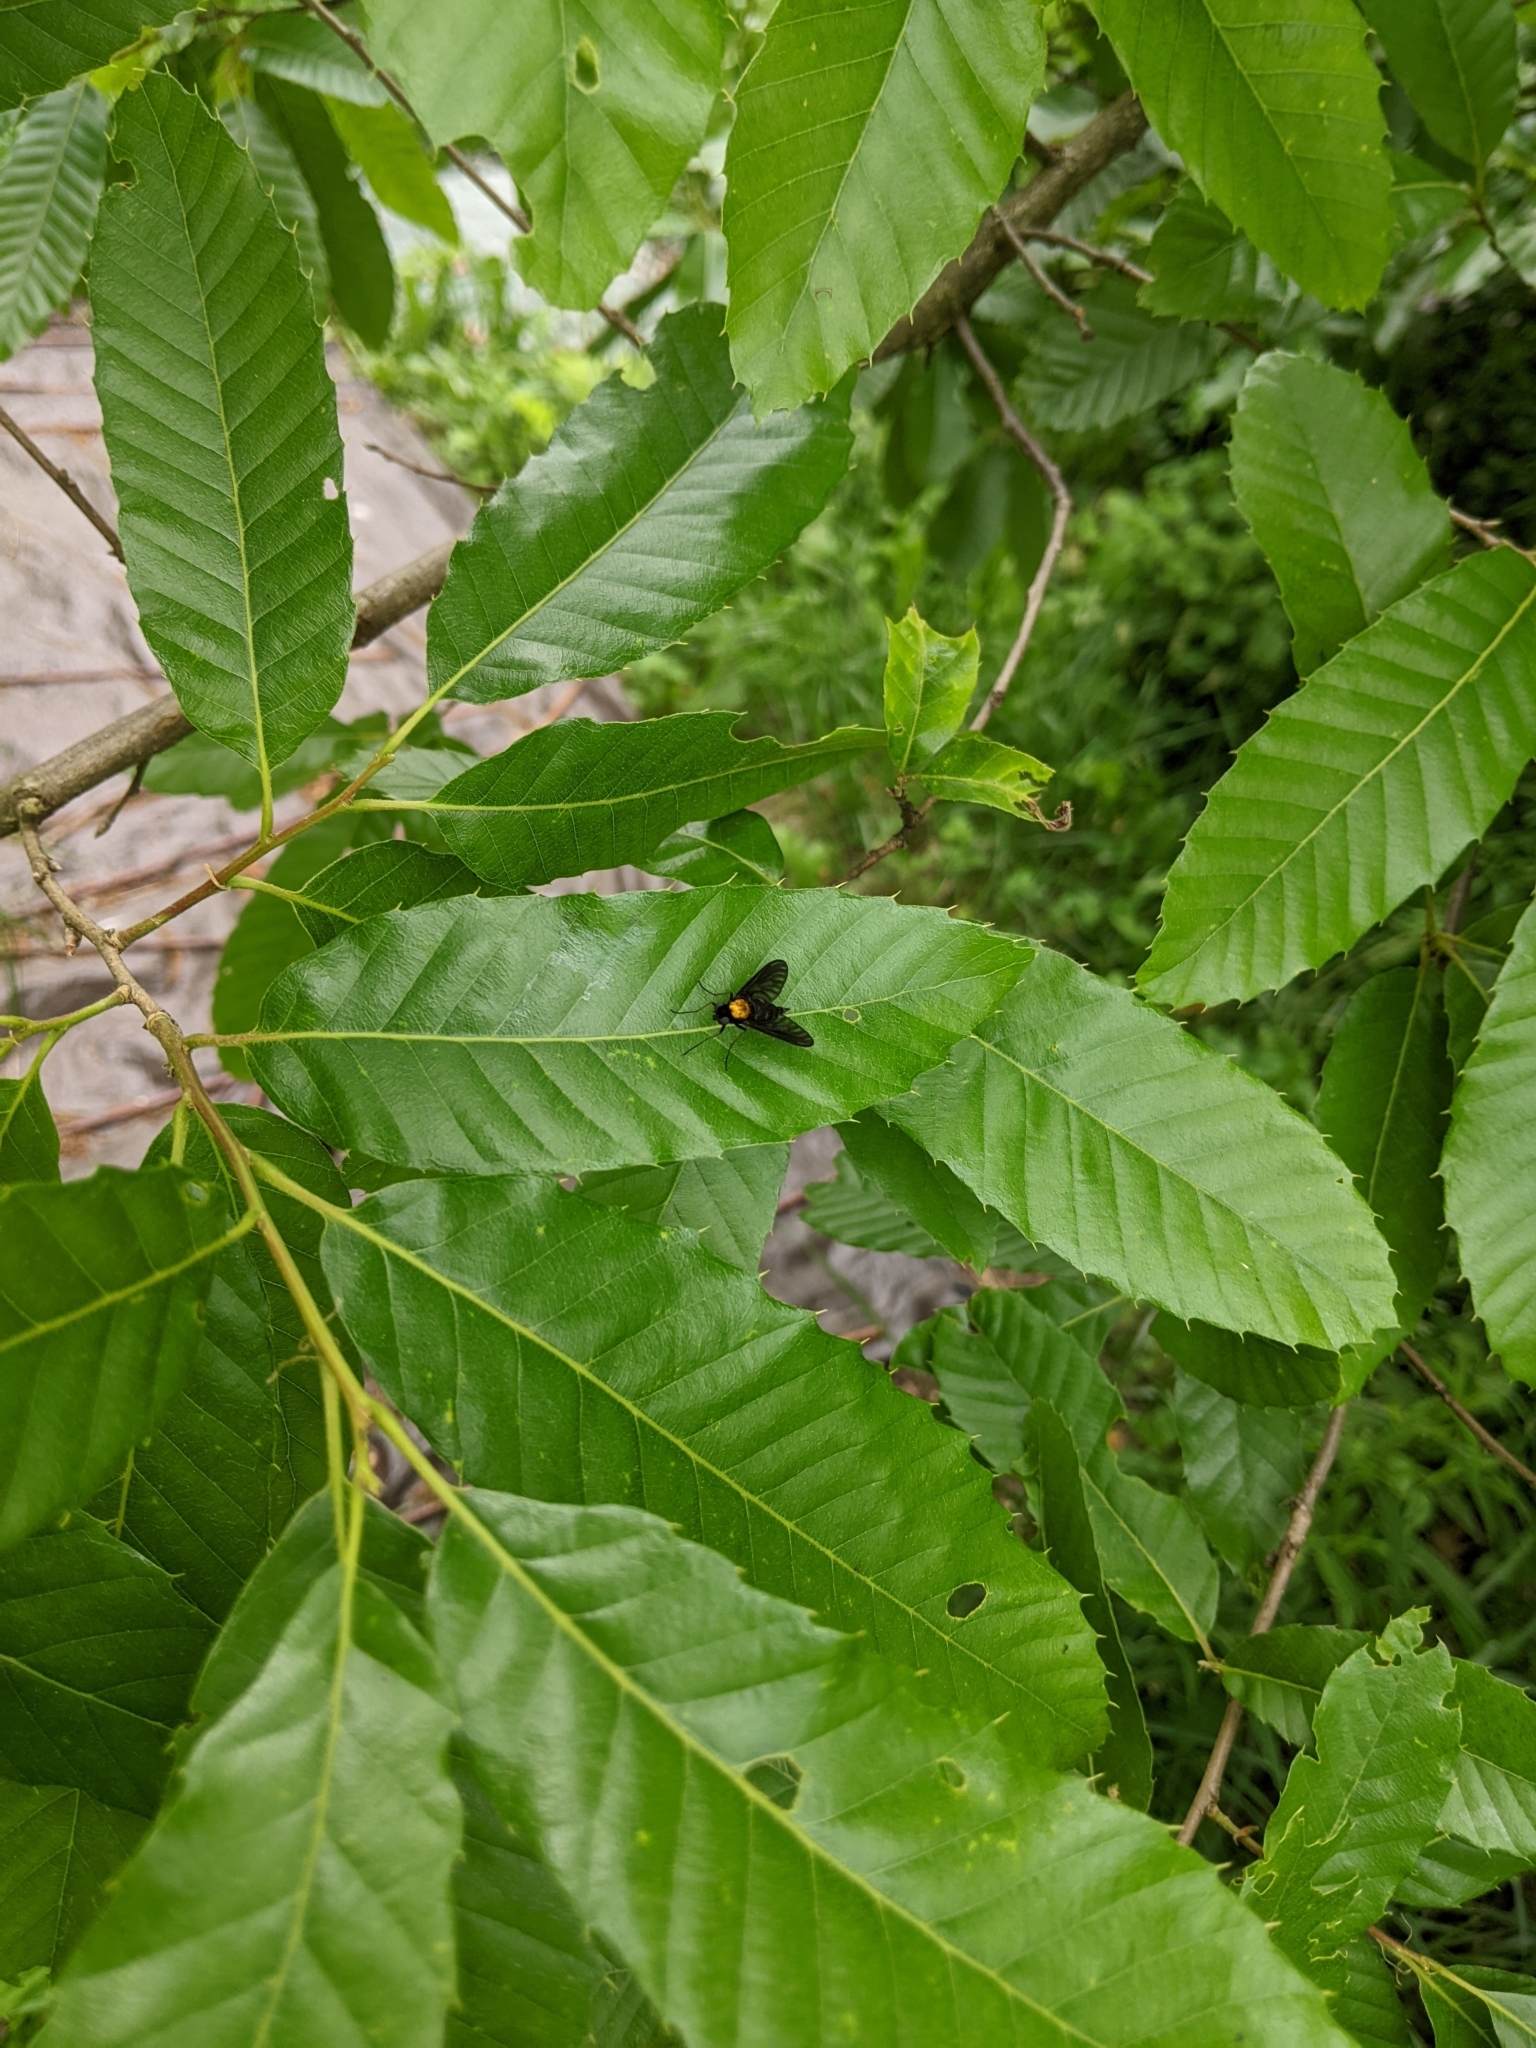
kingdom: Animalia
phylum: Arthropoda
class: Insecta
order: Diptera
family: Rhagionidae
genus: Chrysopilus
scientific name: Chrysopilus thoracicus
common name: Golden-backed snipe fly
